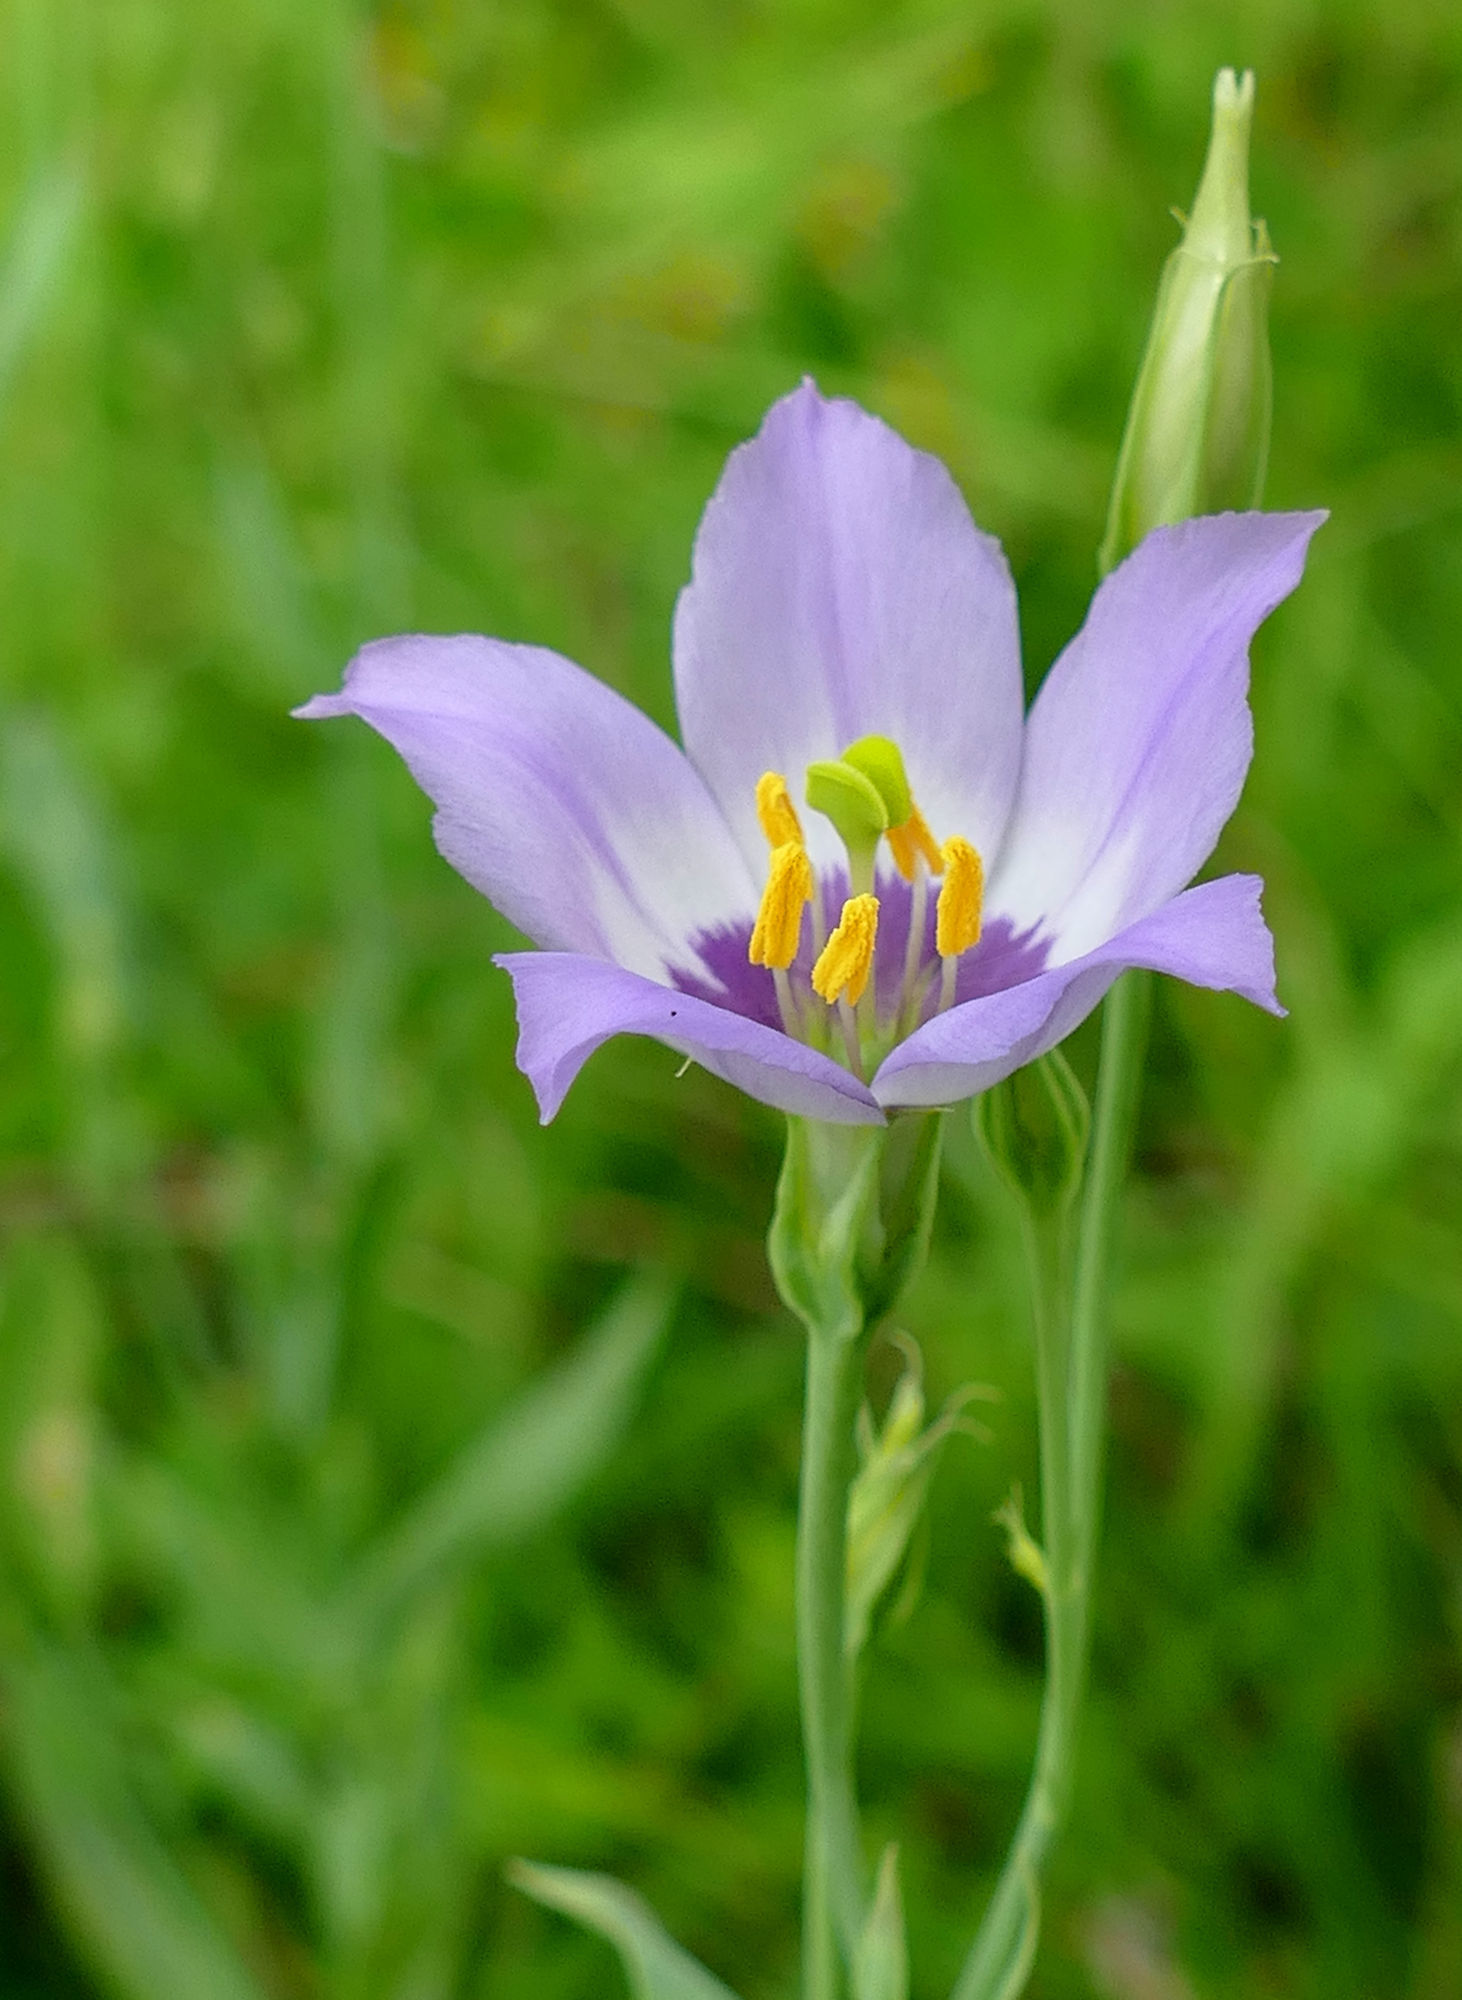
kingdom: Plantae
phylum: Tracheophyta
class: Magnoliopsida
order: Gentianales
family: Gentianaceae
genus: Eustoma
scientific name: Eustoma exaltatum
